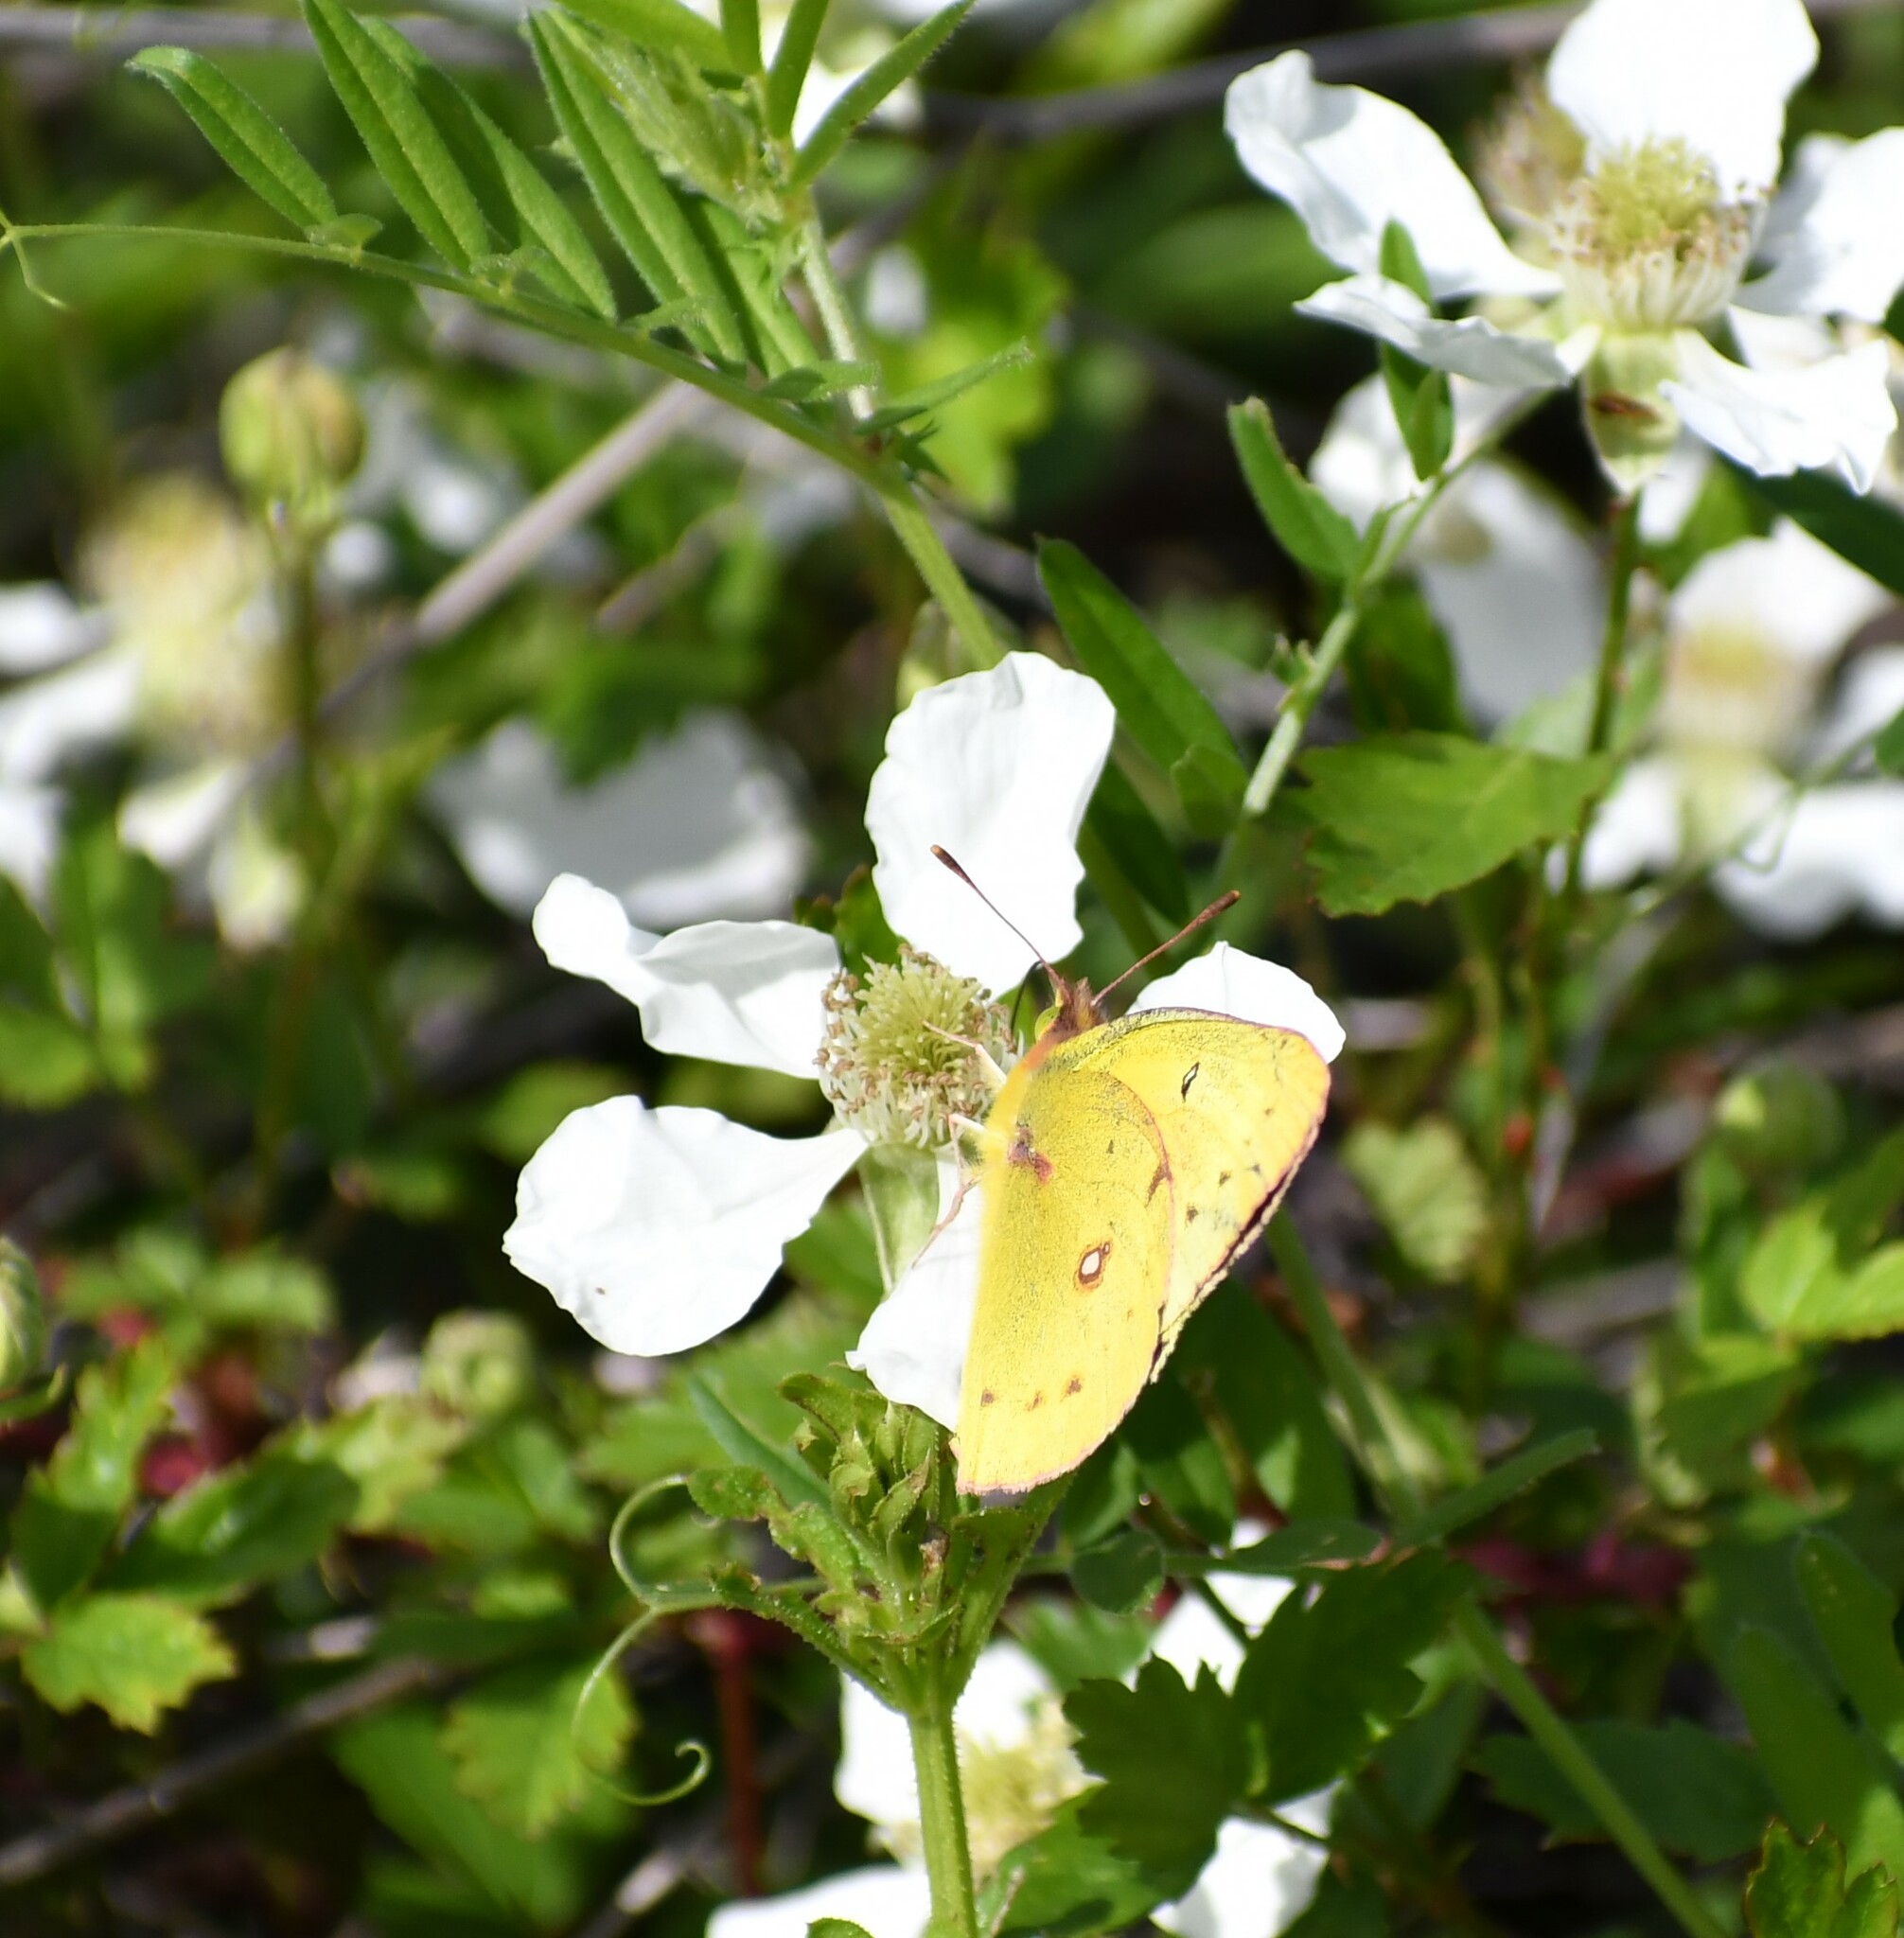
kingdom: Animalia
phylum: Arthropoda
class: Insecta
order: Lepidoptera
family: Pieridae
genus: Colias
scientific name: Colias eurytheme
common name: Alfalfa butterfly
